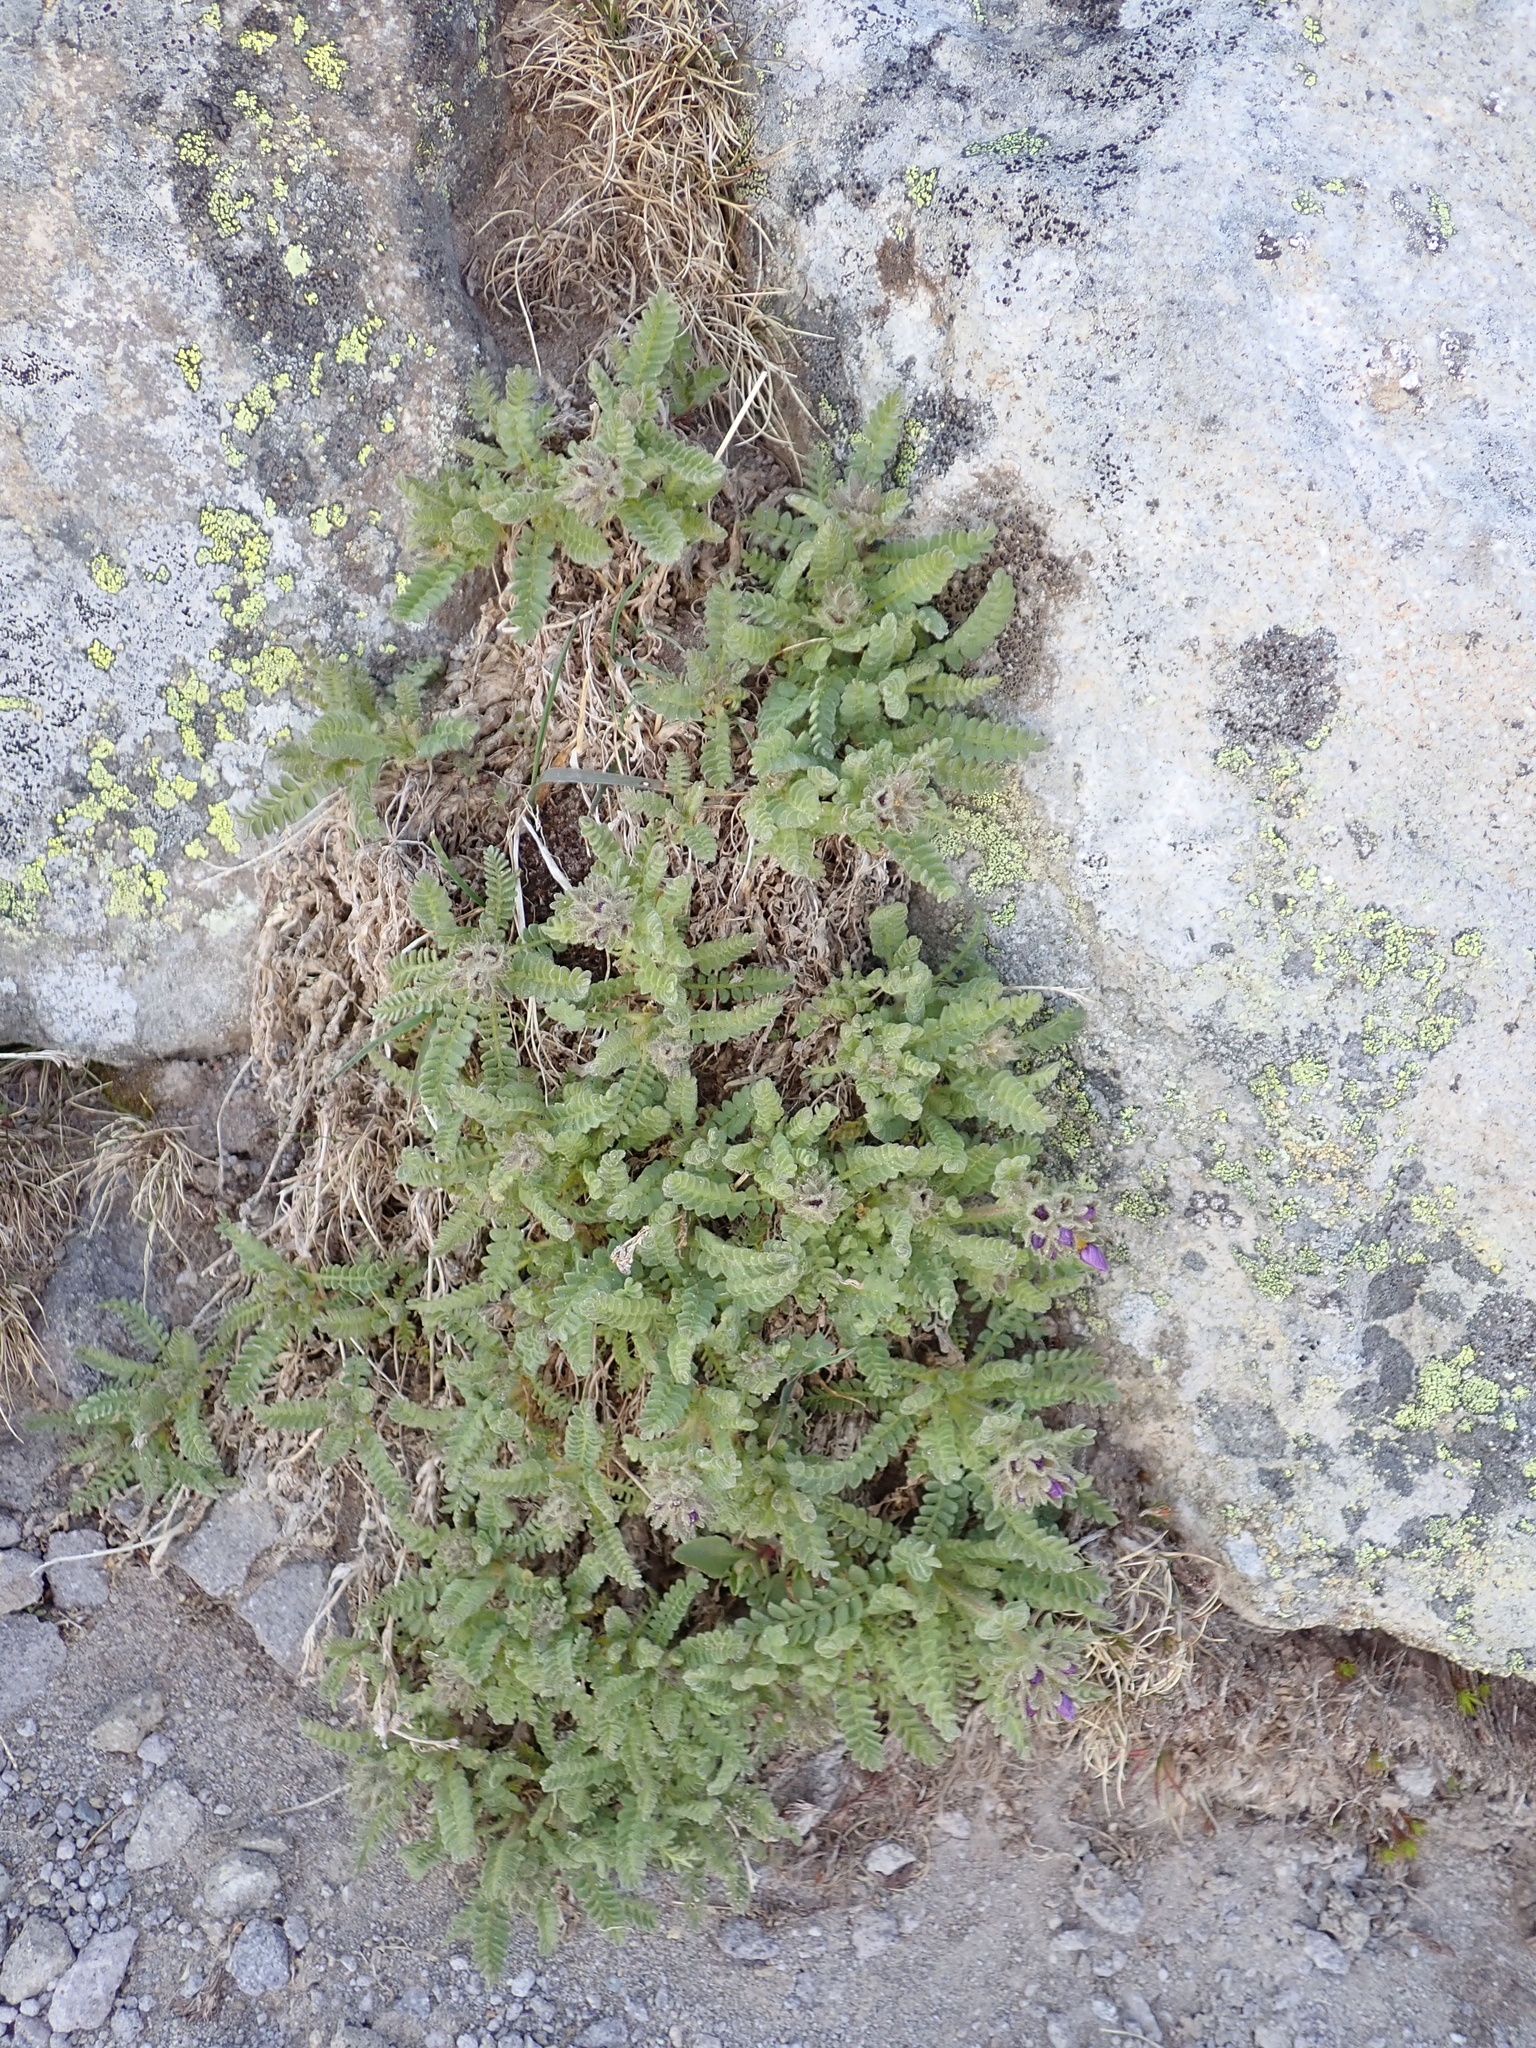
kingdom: Plantae
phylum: Tracheophyta
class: Magnoliopsida
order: Ericales
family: Polemoniaceae
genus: Polemonium
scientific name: Polemonium elegans
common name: Elegant jacob's-ladder
